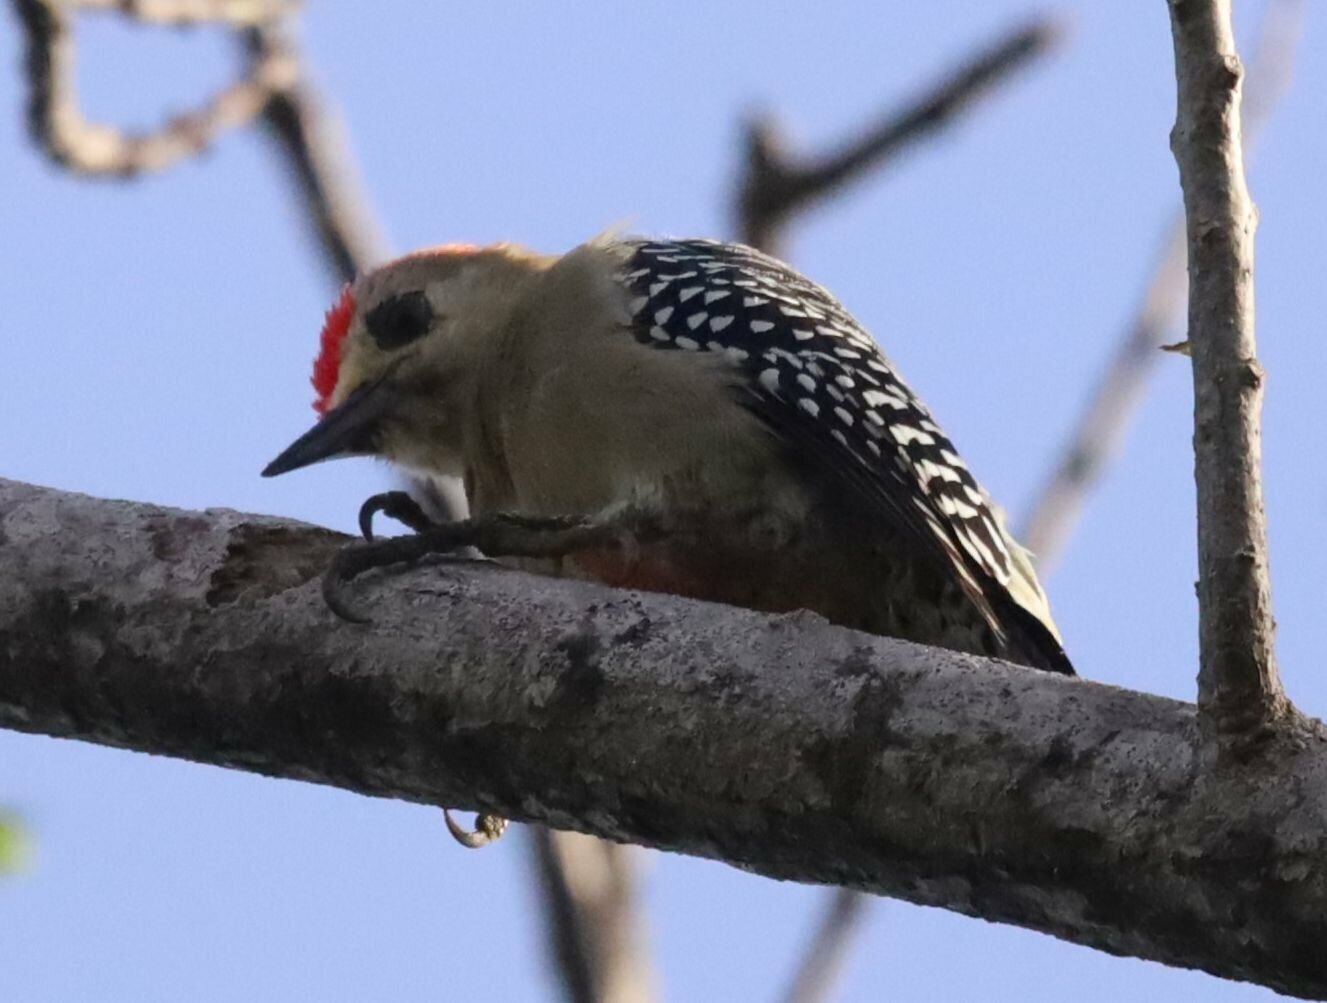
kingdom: Animalia
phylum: Chordata
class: Aves
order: Piciformes
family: Picidae
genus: Melanerpes
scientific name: Melanerpes rubricapillus
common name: Red-crowned woodpecker
